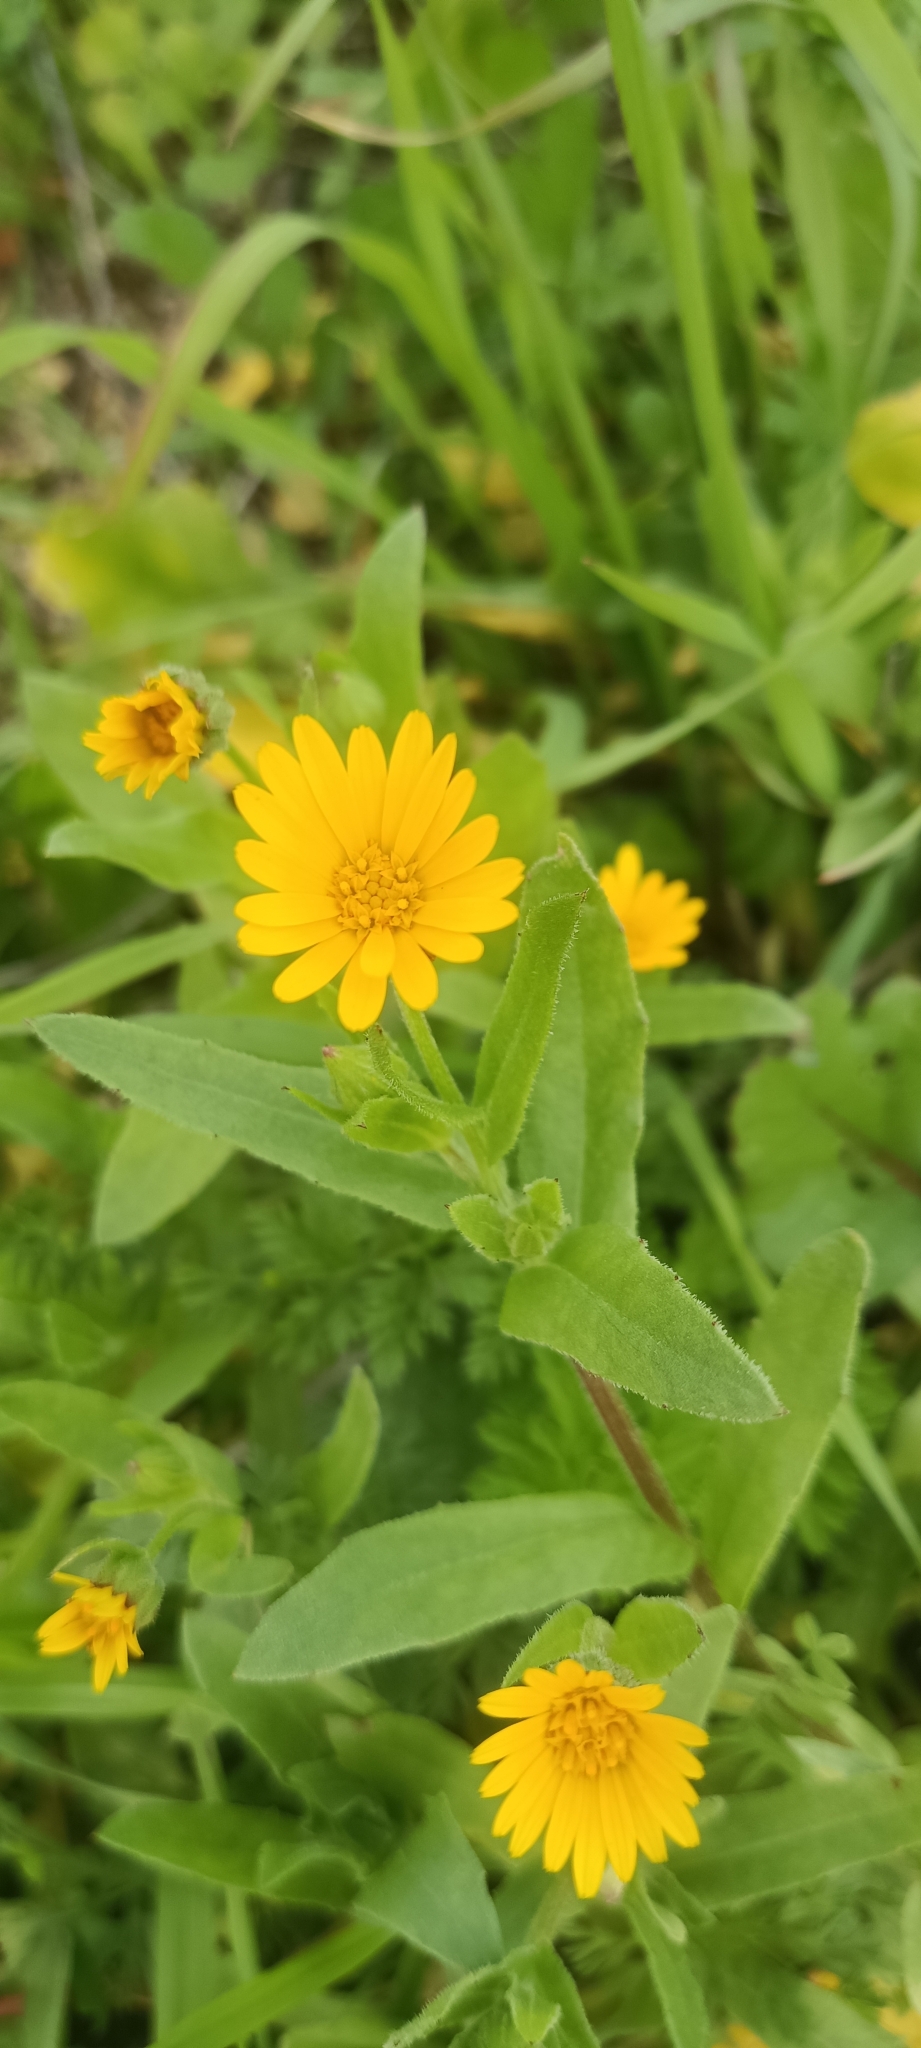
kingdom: Plantae
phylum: Tracheophyta
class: Magnoliopsida
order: Asterales
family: Asteraceae
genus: Calendula
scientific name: Calendula arvensis
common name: Field marigold
